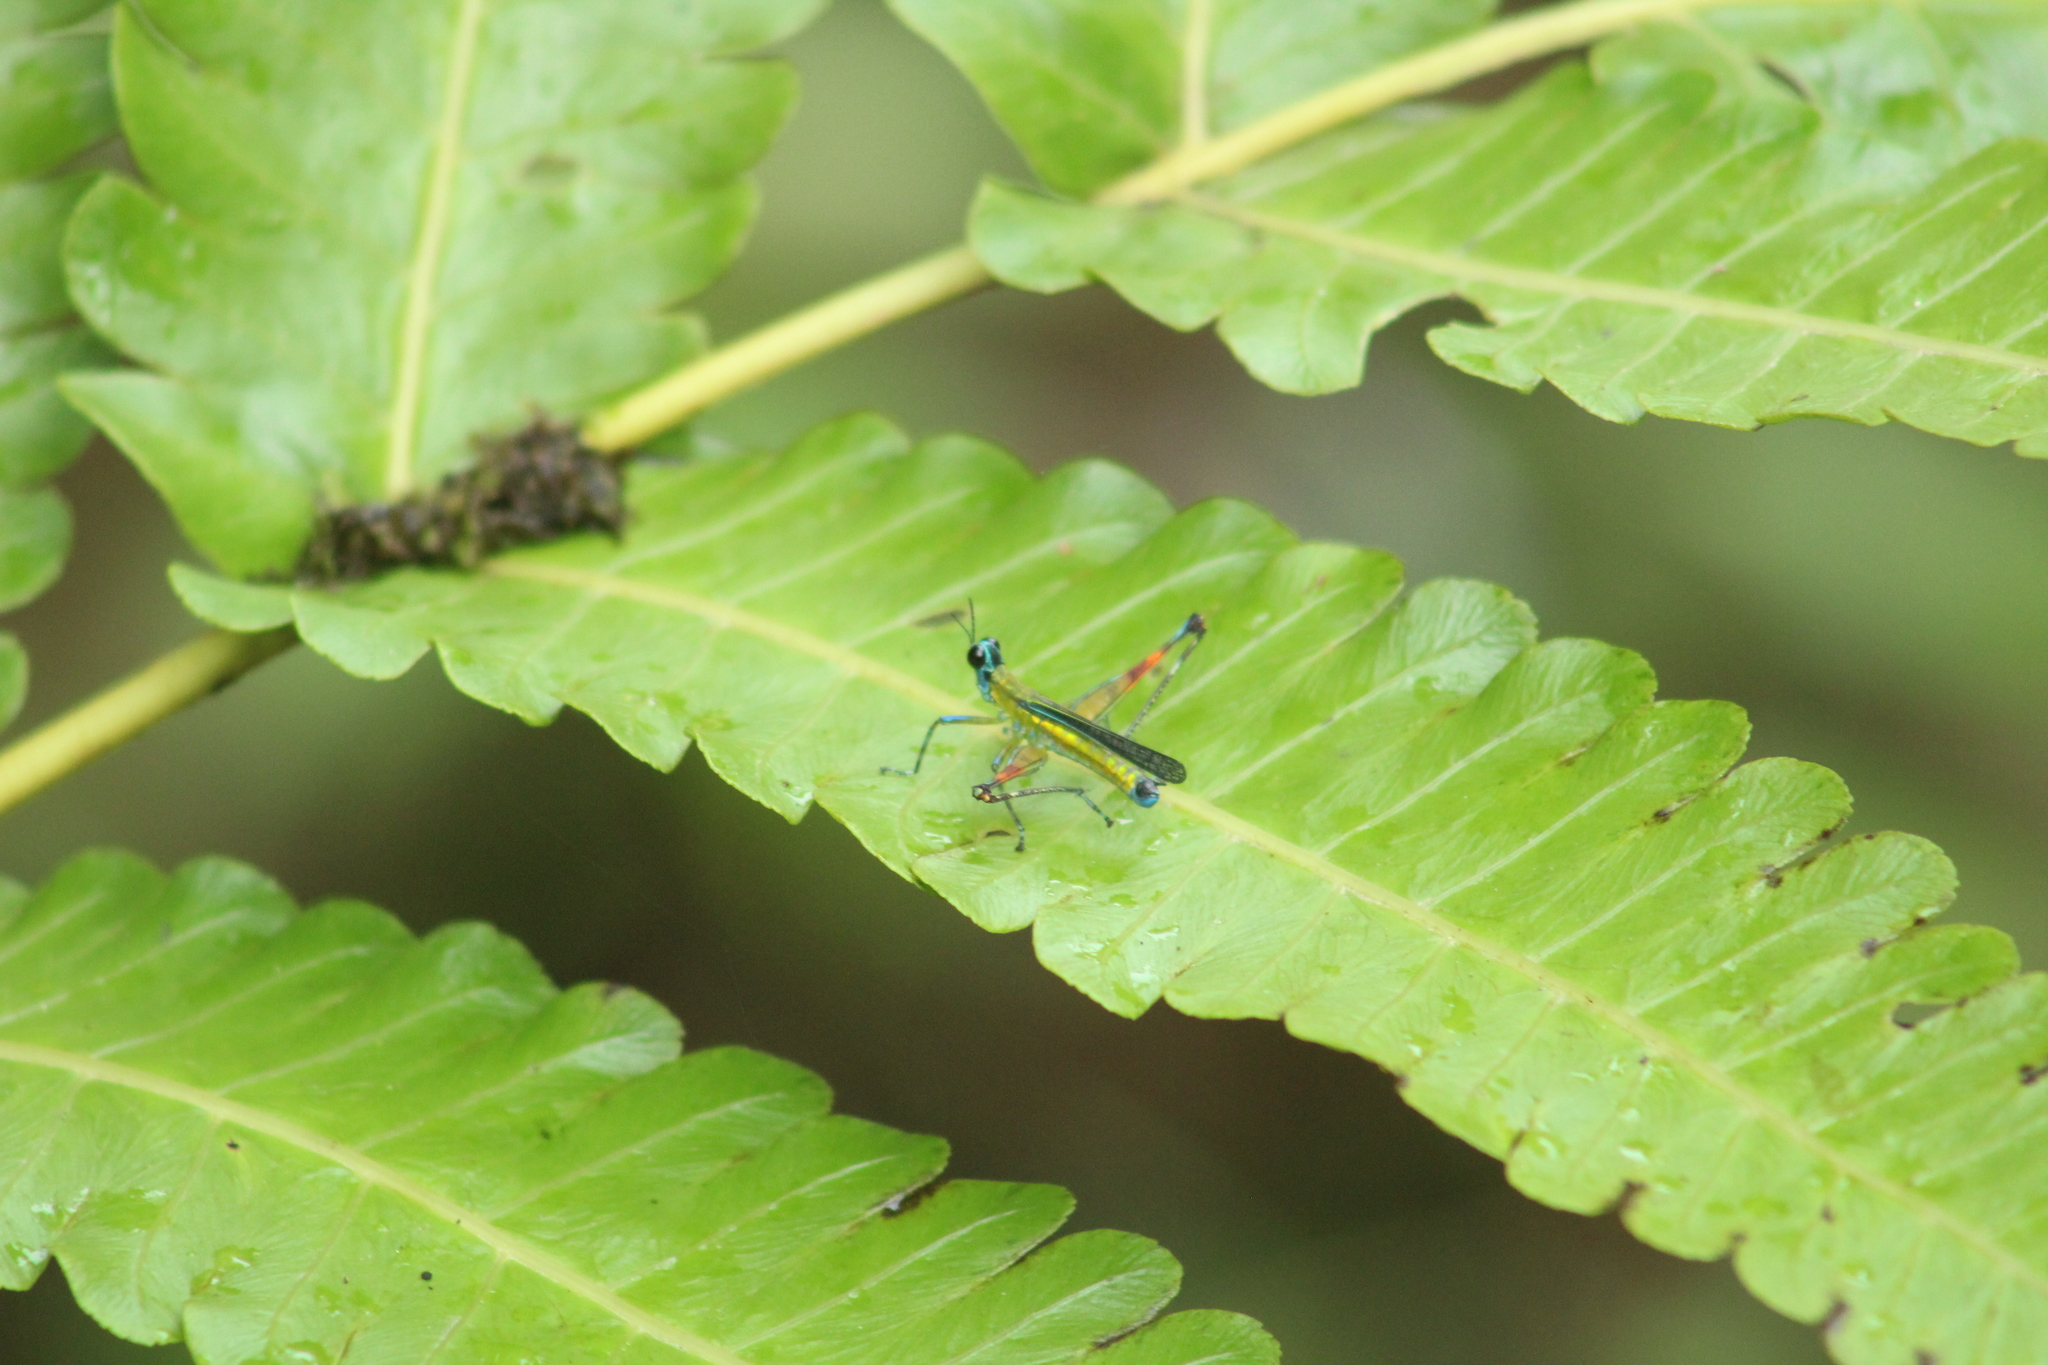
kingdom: Animalia
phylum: Arthropoda
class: Insecta
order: Orthoptera
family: Eumastacidae
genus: Homeomastax
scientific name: Homeomastax bouvieri
